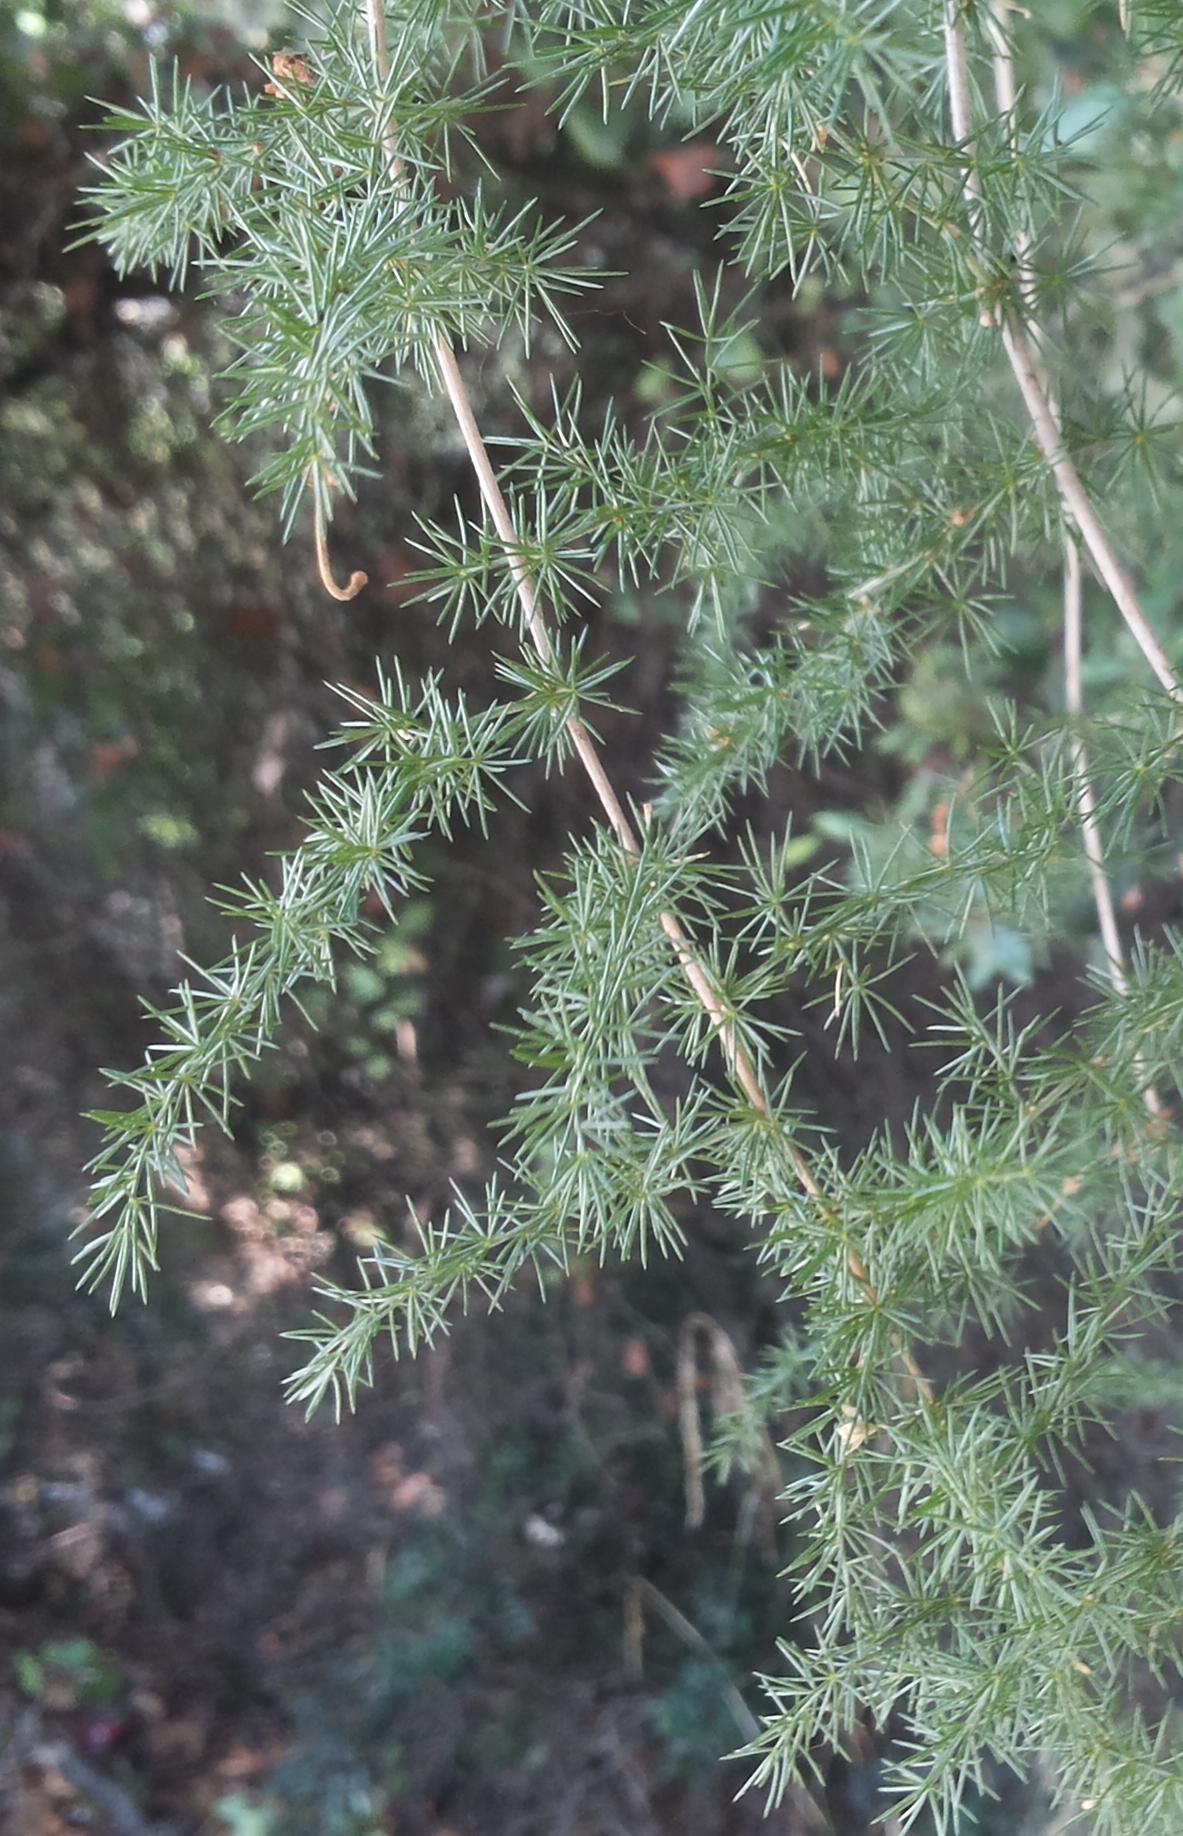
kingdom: Plantae
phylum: Tracheophyta
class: Liliopsida
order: Asparagales
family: Asparagaceae
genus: Asparagus
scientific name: Asparagus acutifolius
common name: Wild asparagus
